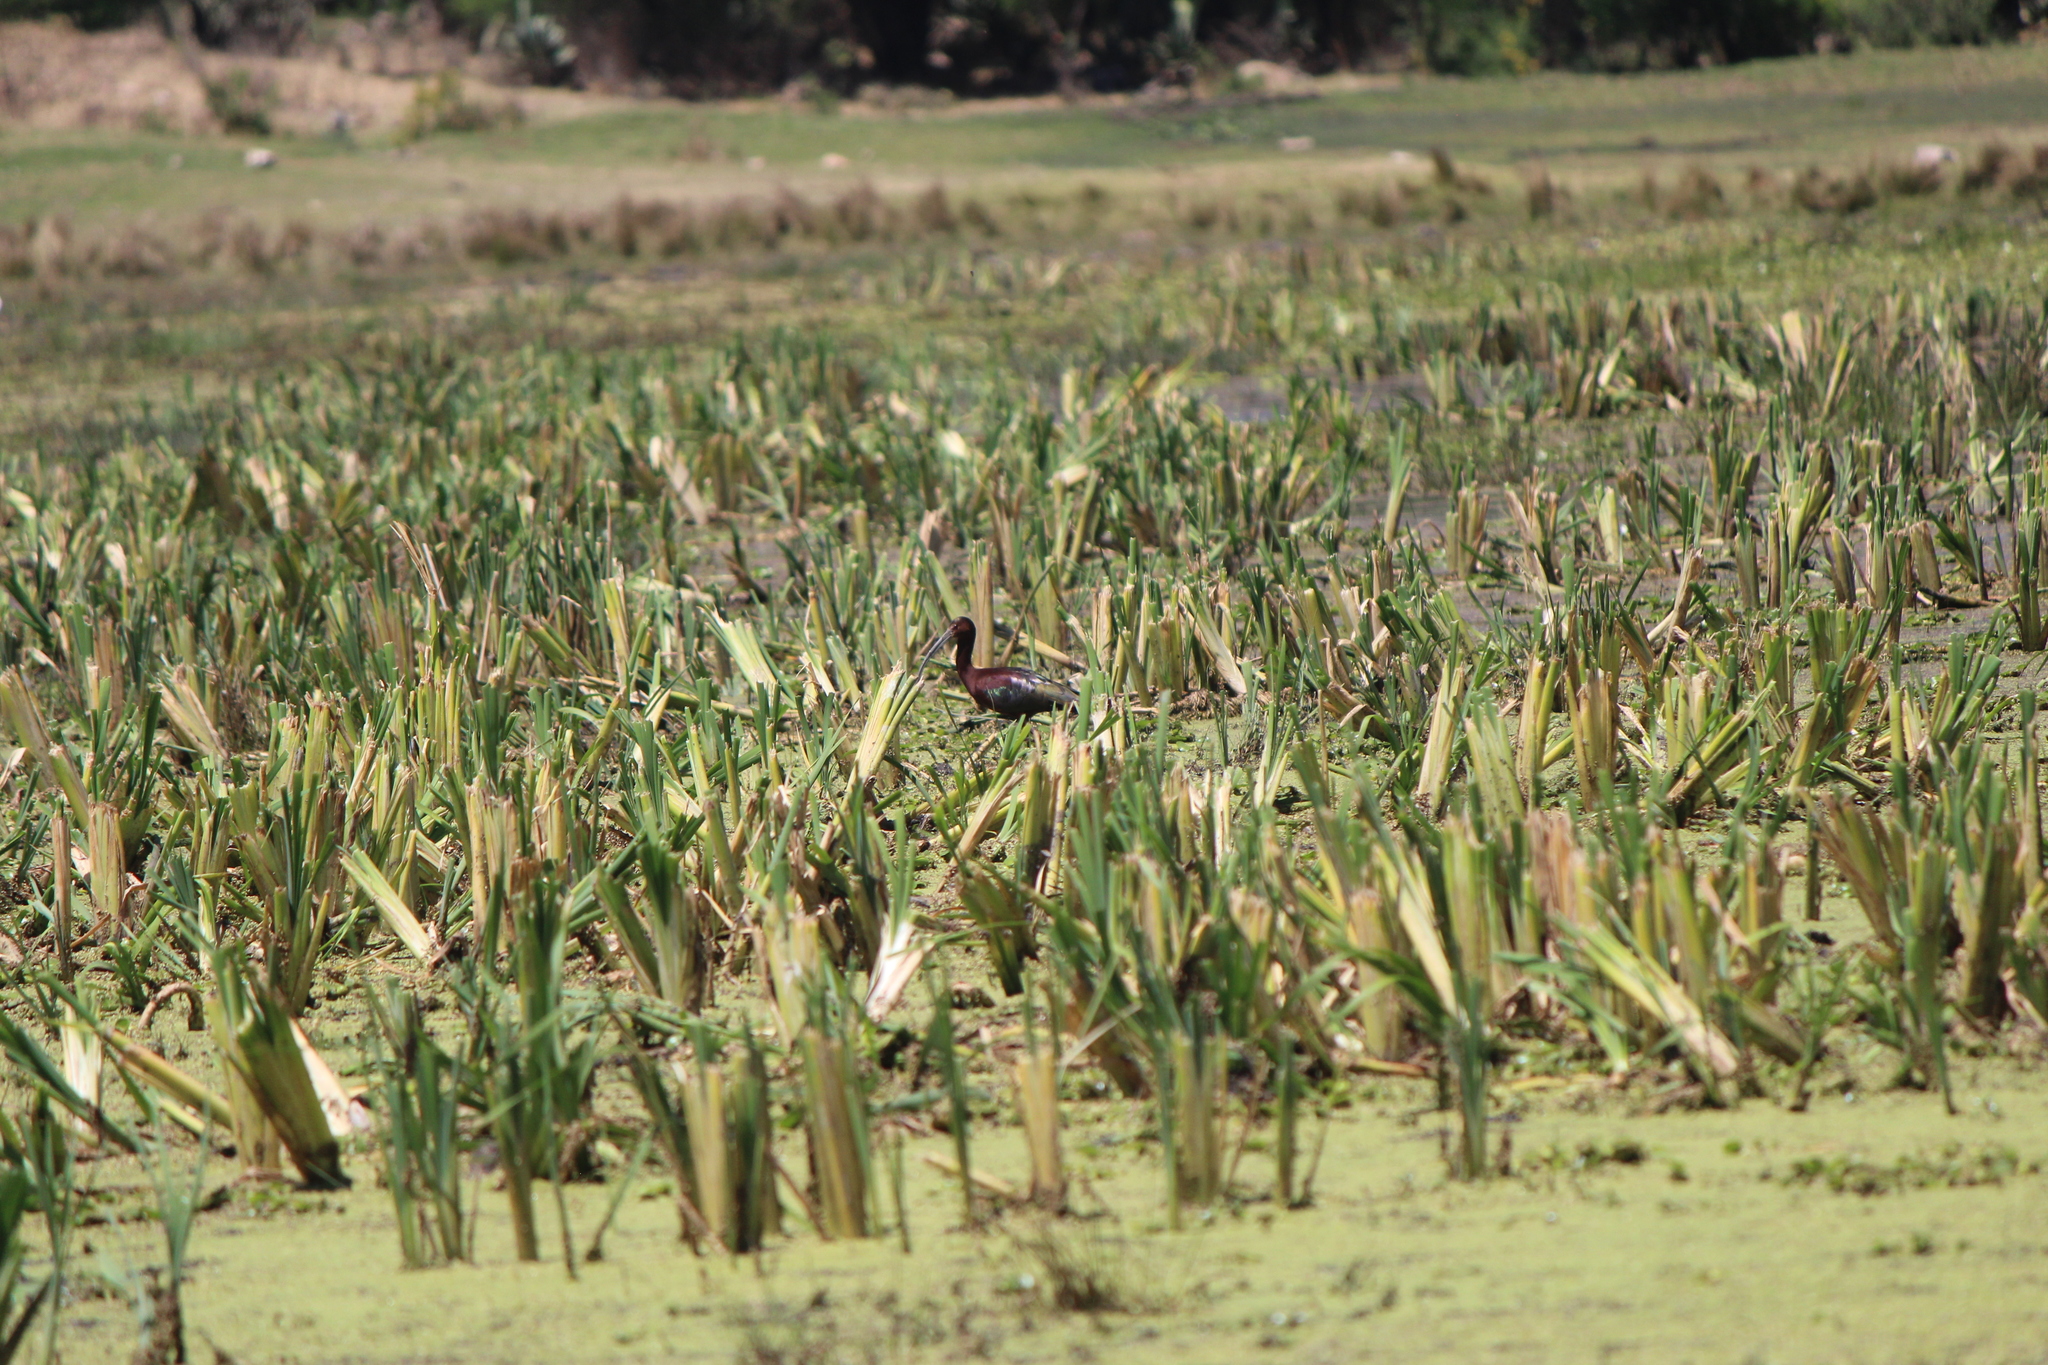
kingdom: Animalia
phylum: Chordata
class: Aves
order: Pelecaniformes
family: Threskiornithidae
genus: Plegadis
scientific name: Plegadis chihi
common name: White-faced ibis
